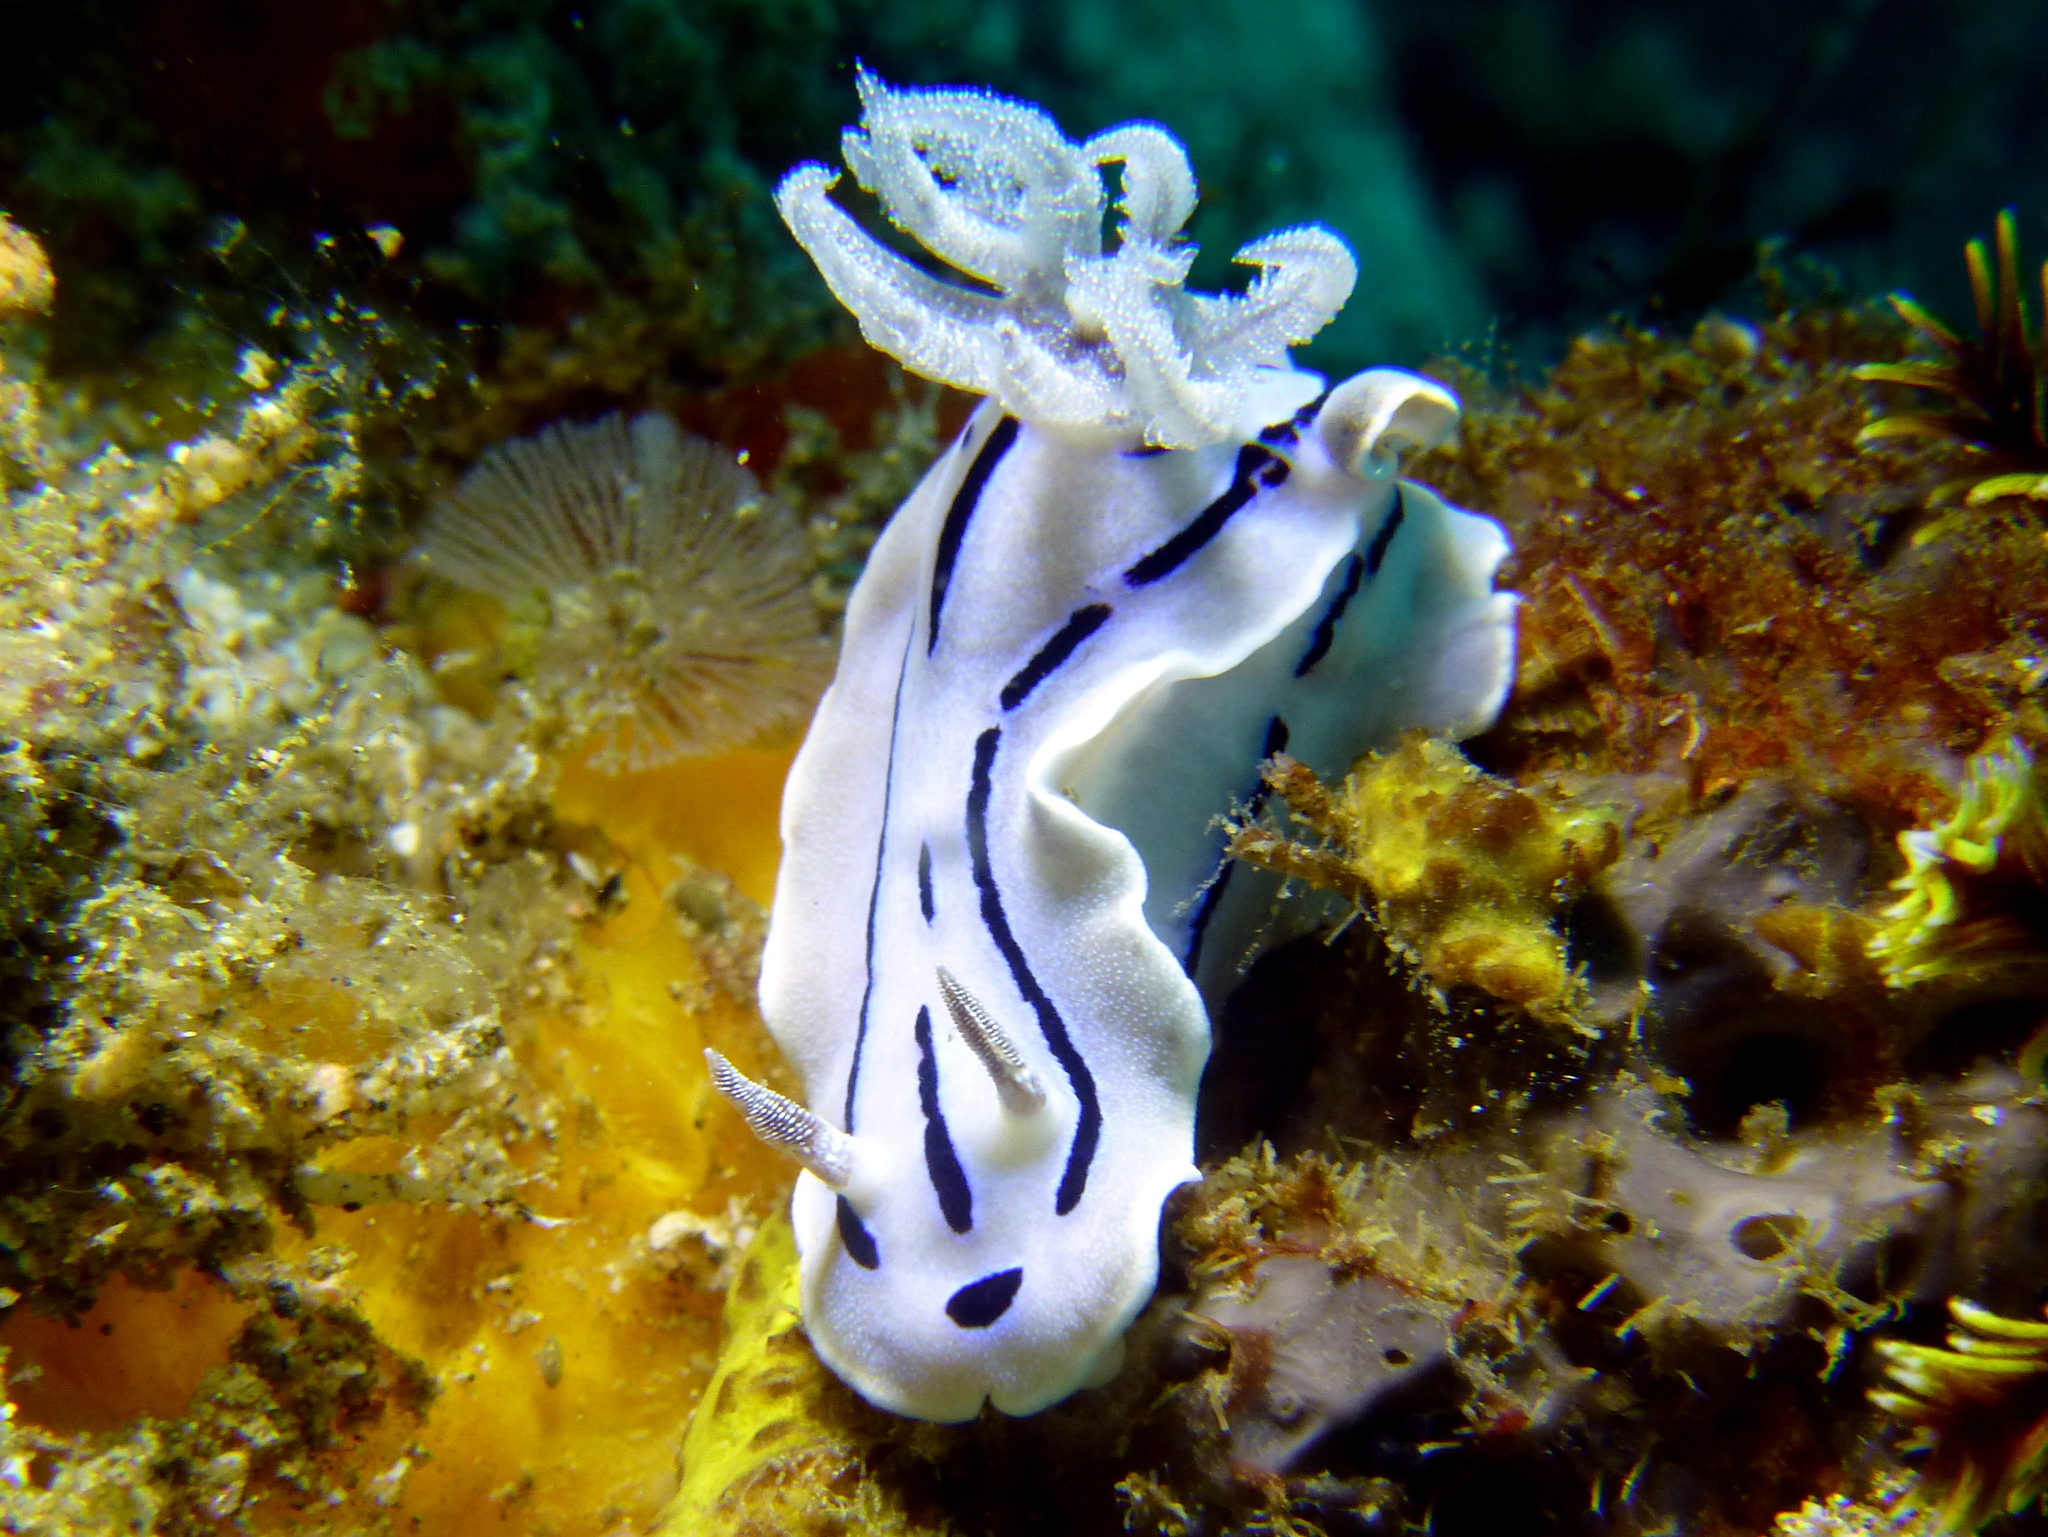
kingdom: Animalia
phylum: Mollusca
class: Gastropoda
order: Nudibranchia
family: Chromodorididae
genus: Chromodoris
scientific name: Chromodoris willani
